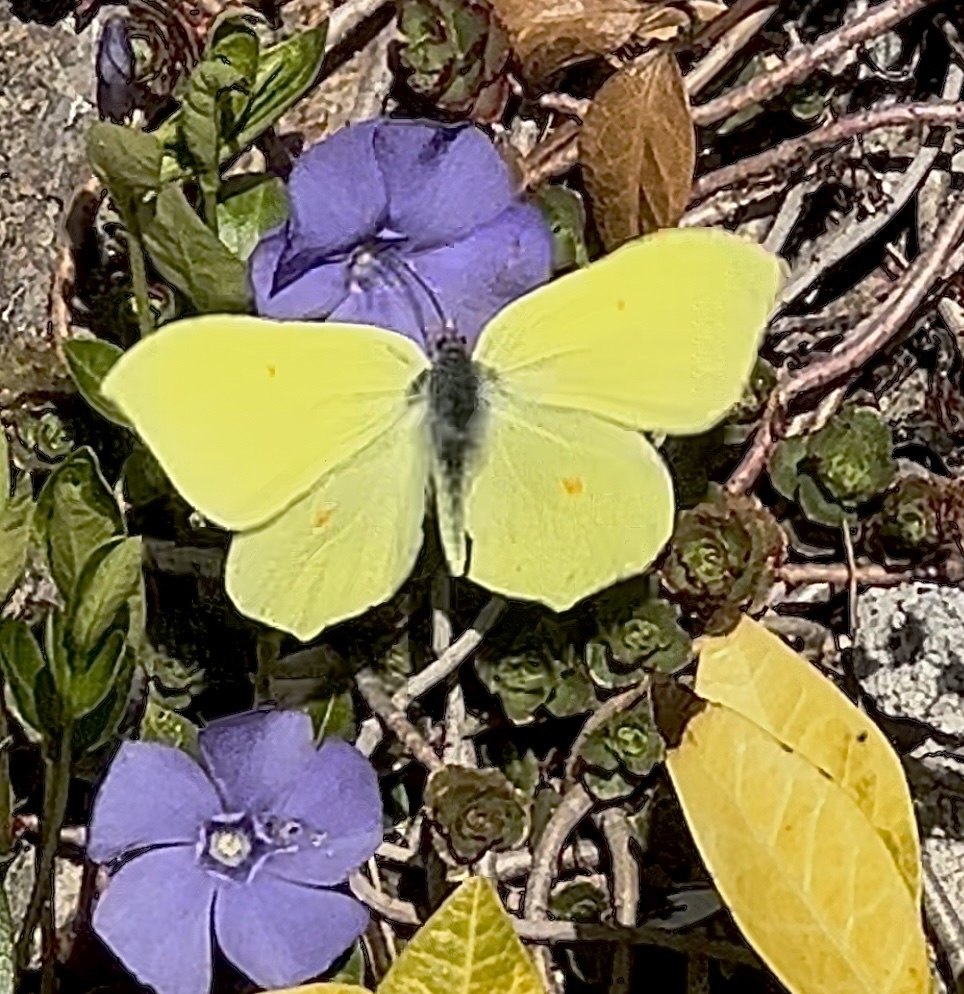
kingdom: Animalia
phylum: Arthropoda
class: Insecta
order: Lepidoptera
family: Pieridae
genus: Gonepteryx
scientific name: Gonepteryx rhamni
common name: Brimstone
